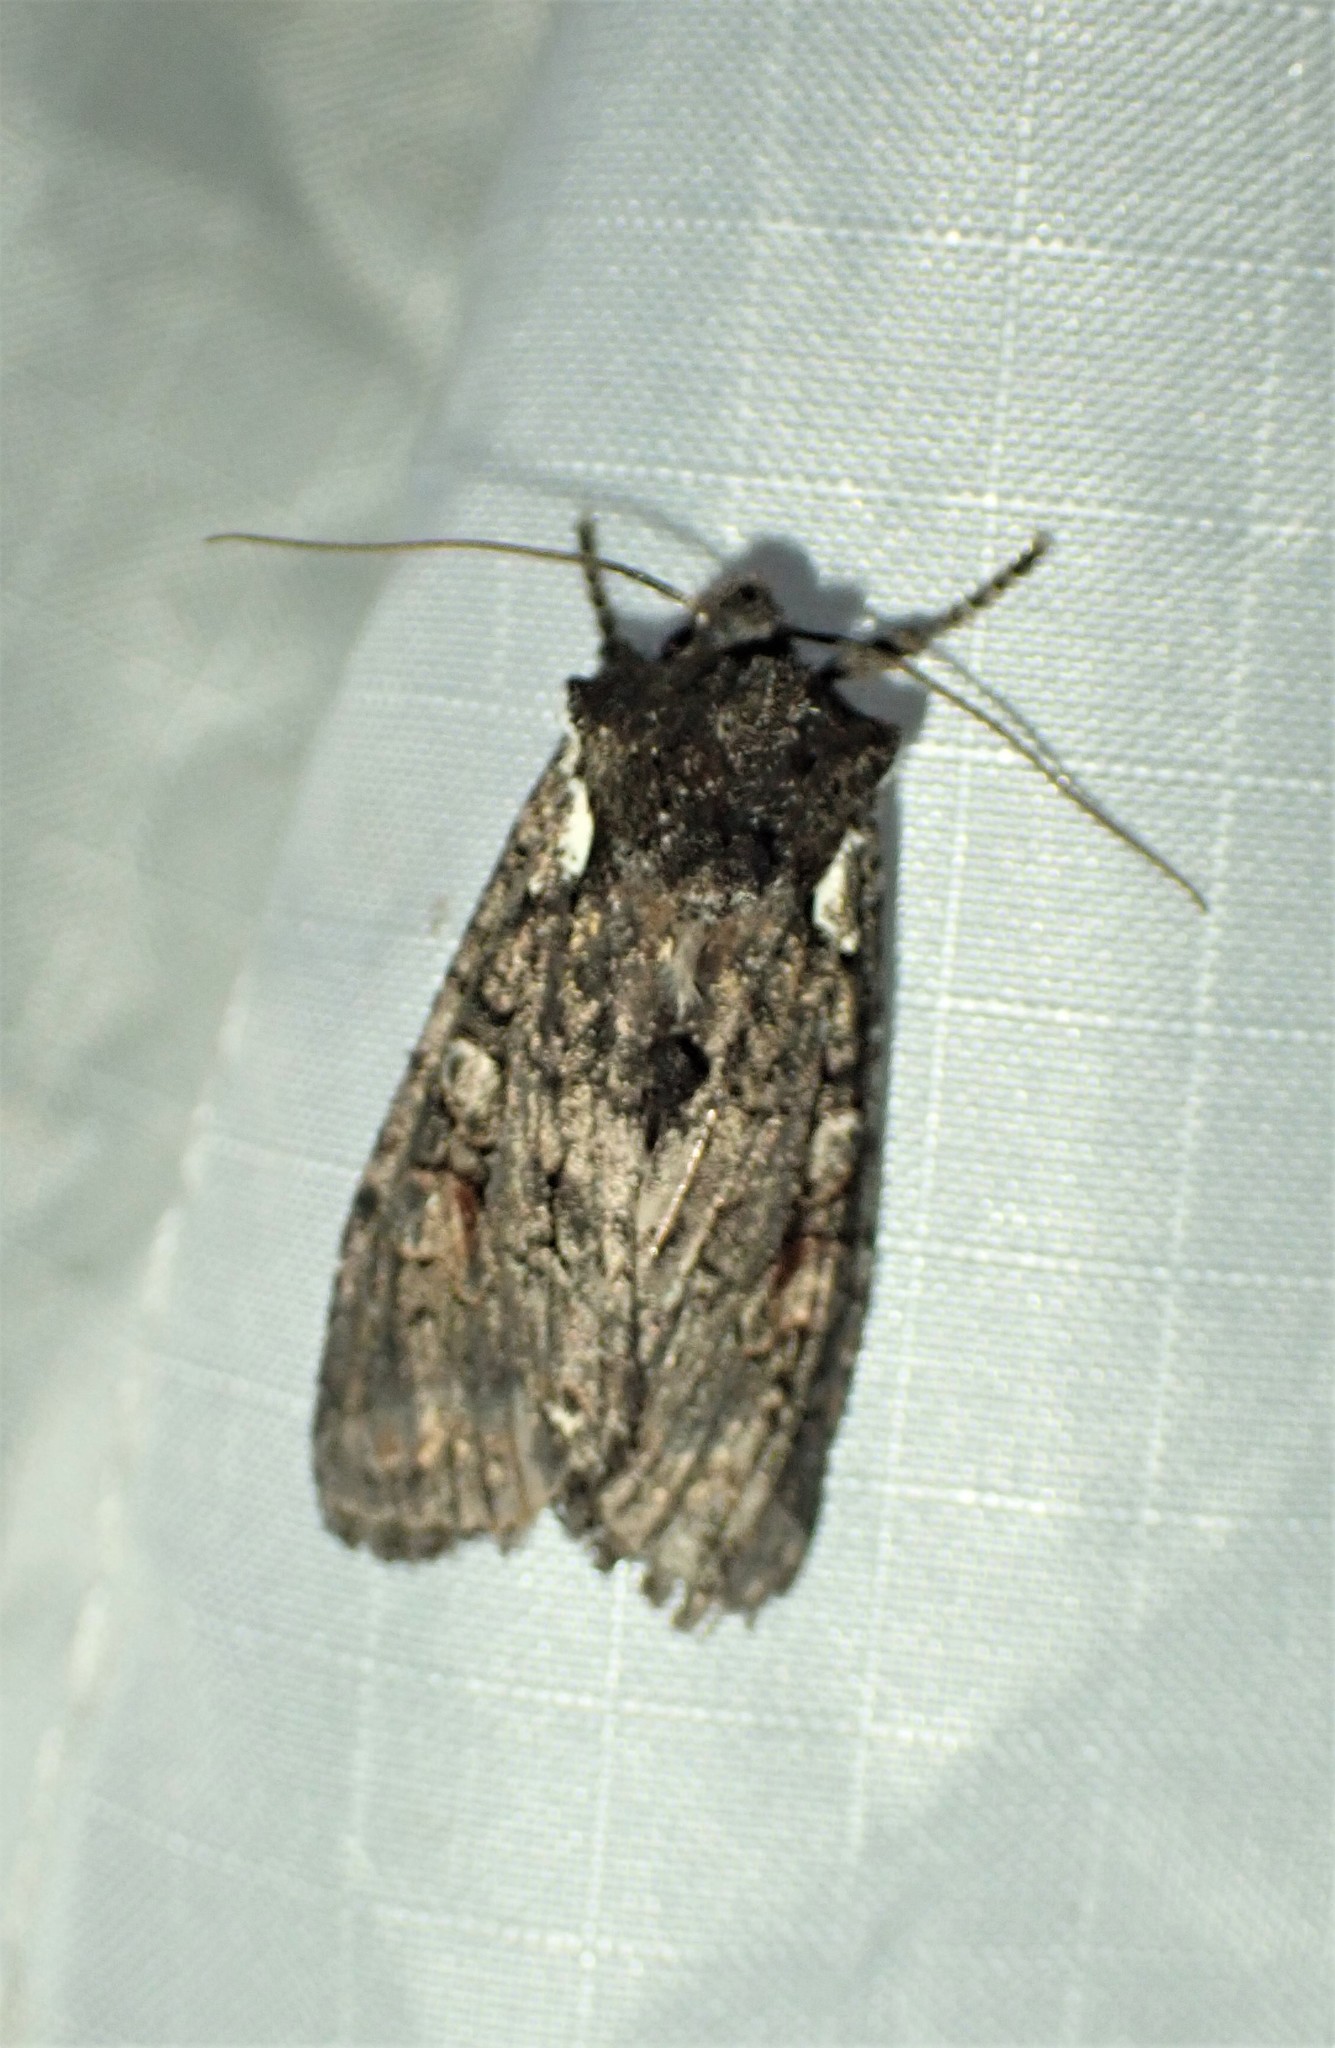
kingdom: Animalia
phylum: Arthropoda
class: Insecta
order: Lepidoptera
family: Noctuidae
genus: Lithophane
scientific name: Lithophane pexata
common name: Plush-naped pinion moth
